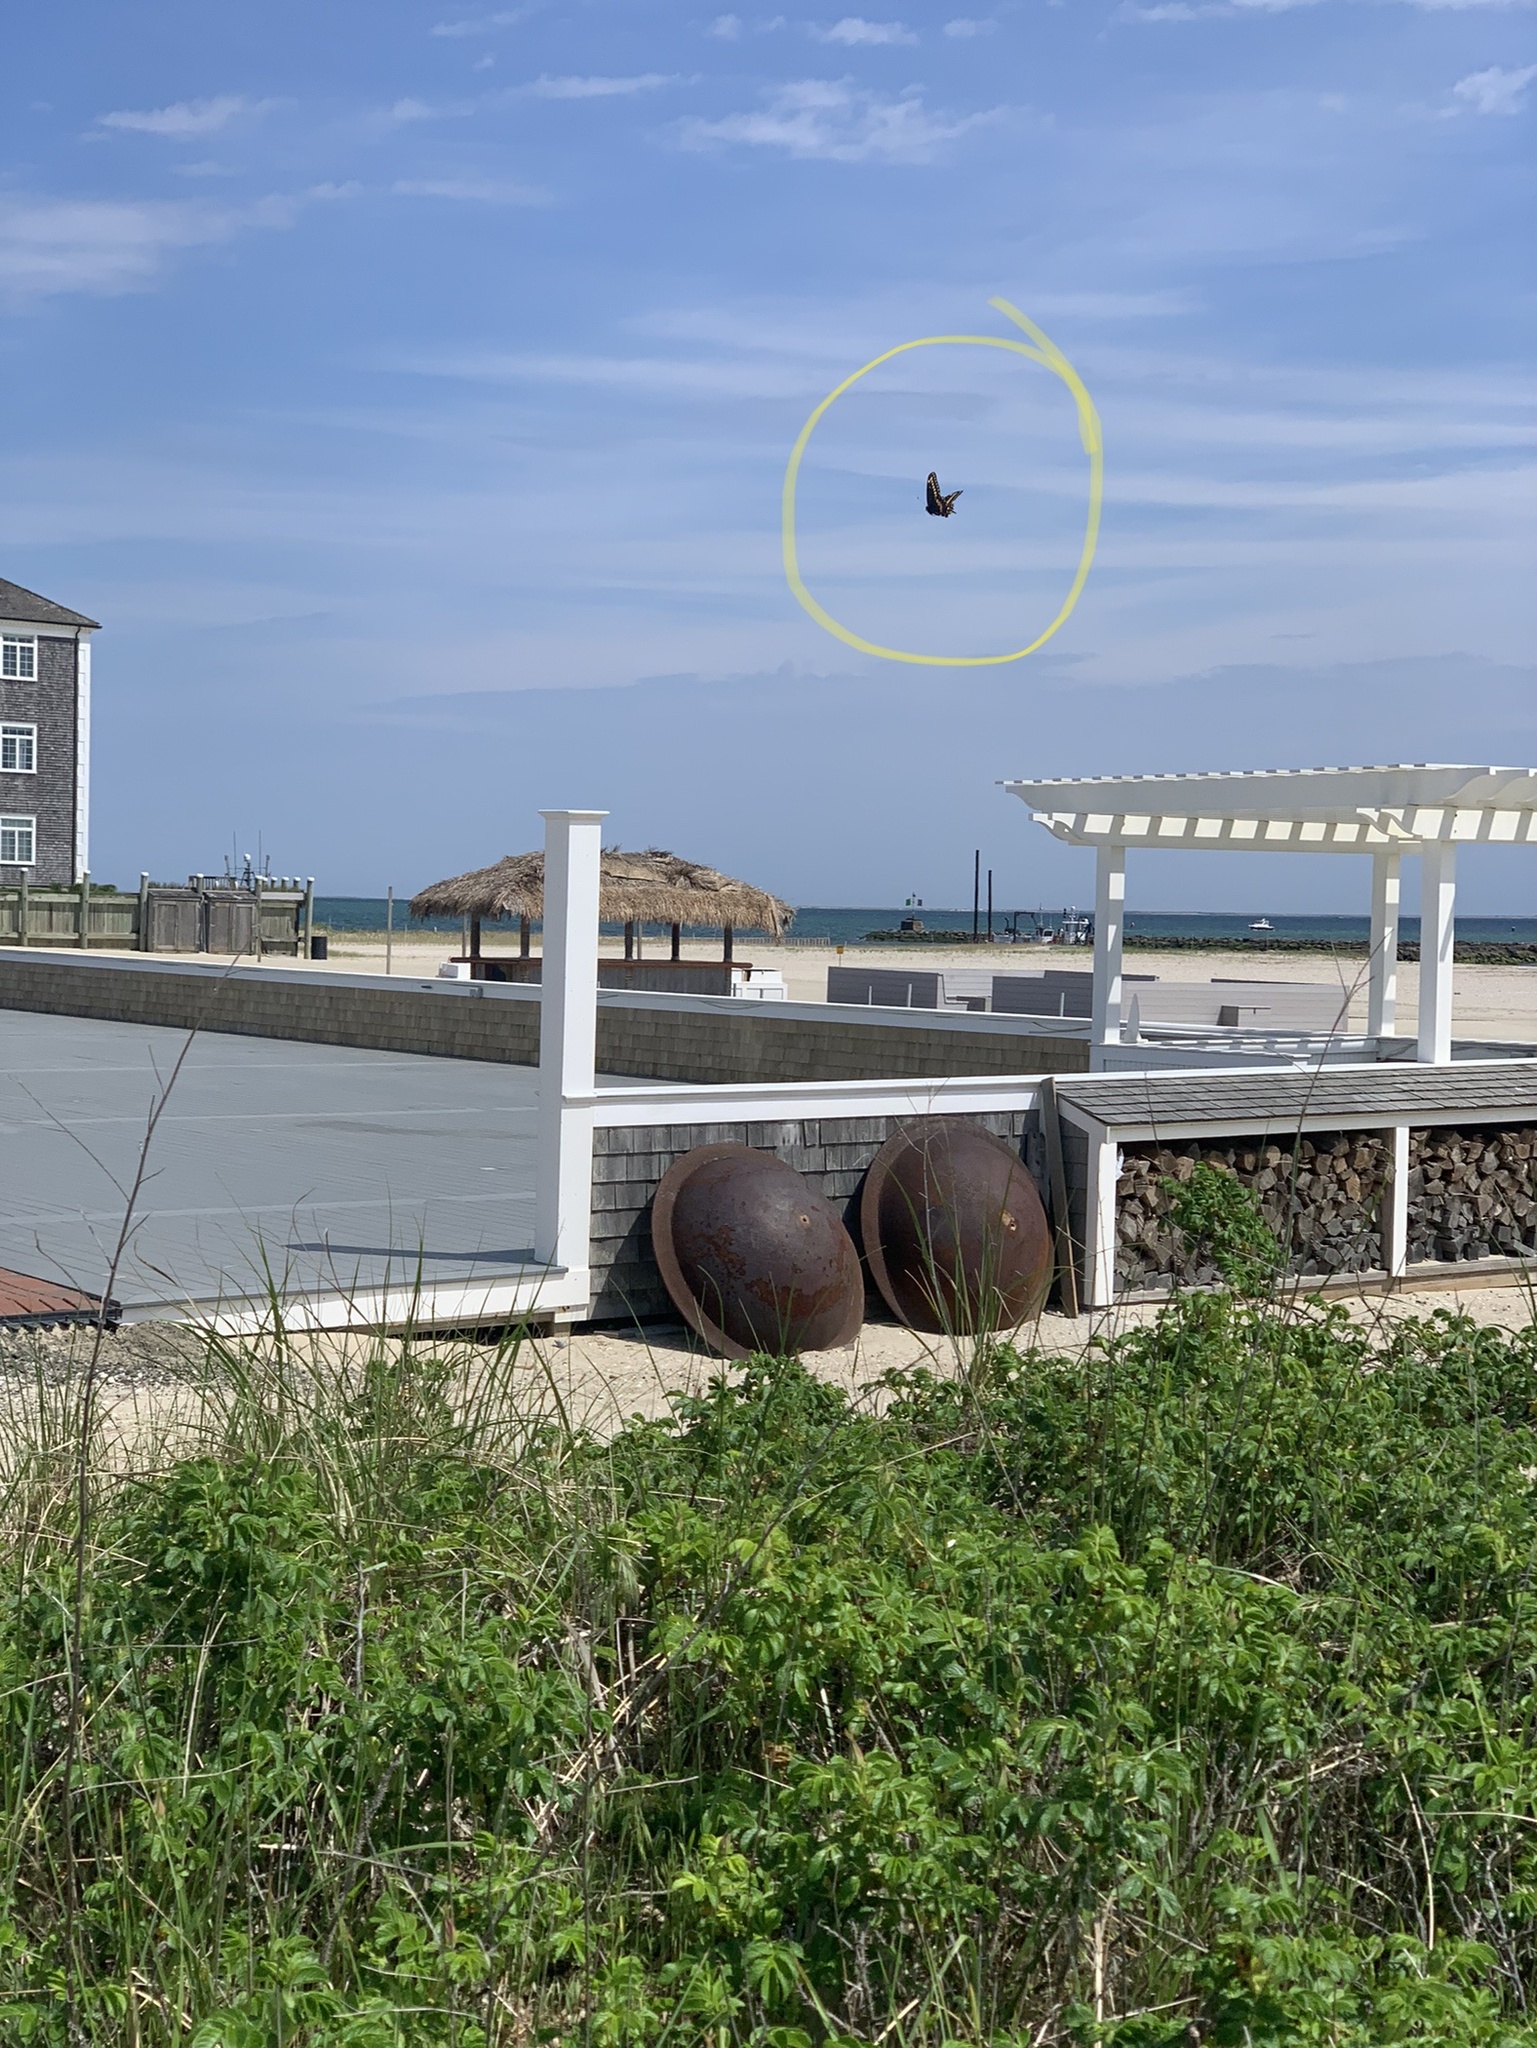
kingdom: Animalia
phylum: Arthropoda
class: Insecta
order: Lepidoptera
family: Papilionidae
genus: Papilio
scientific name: Papilio polyxenes
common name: Black swallowtail
